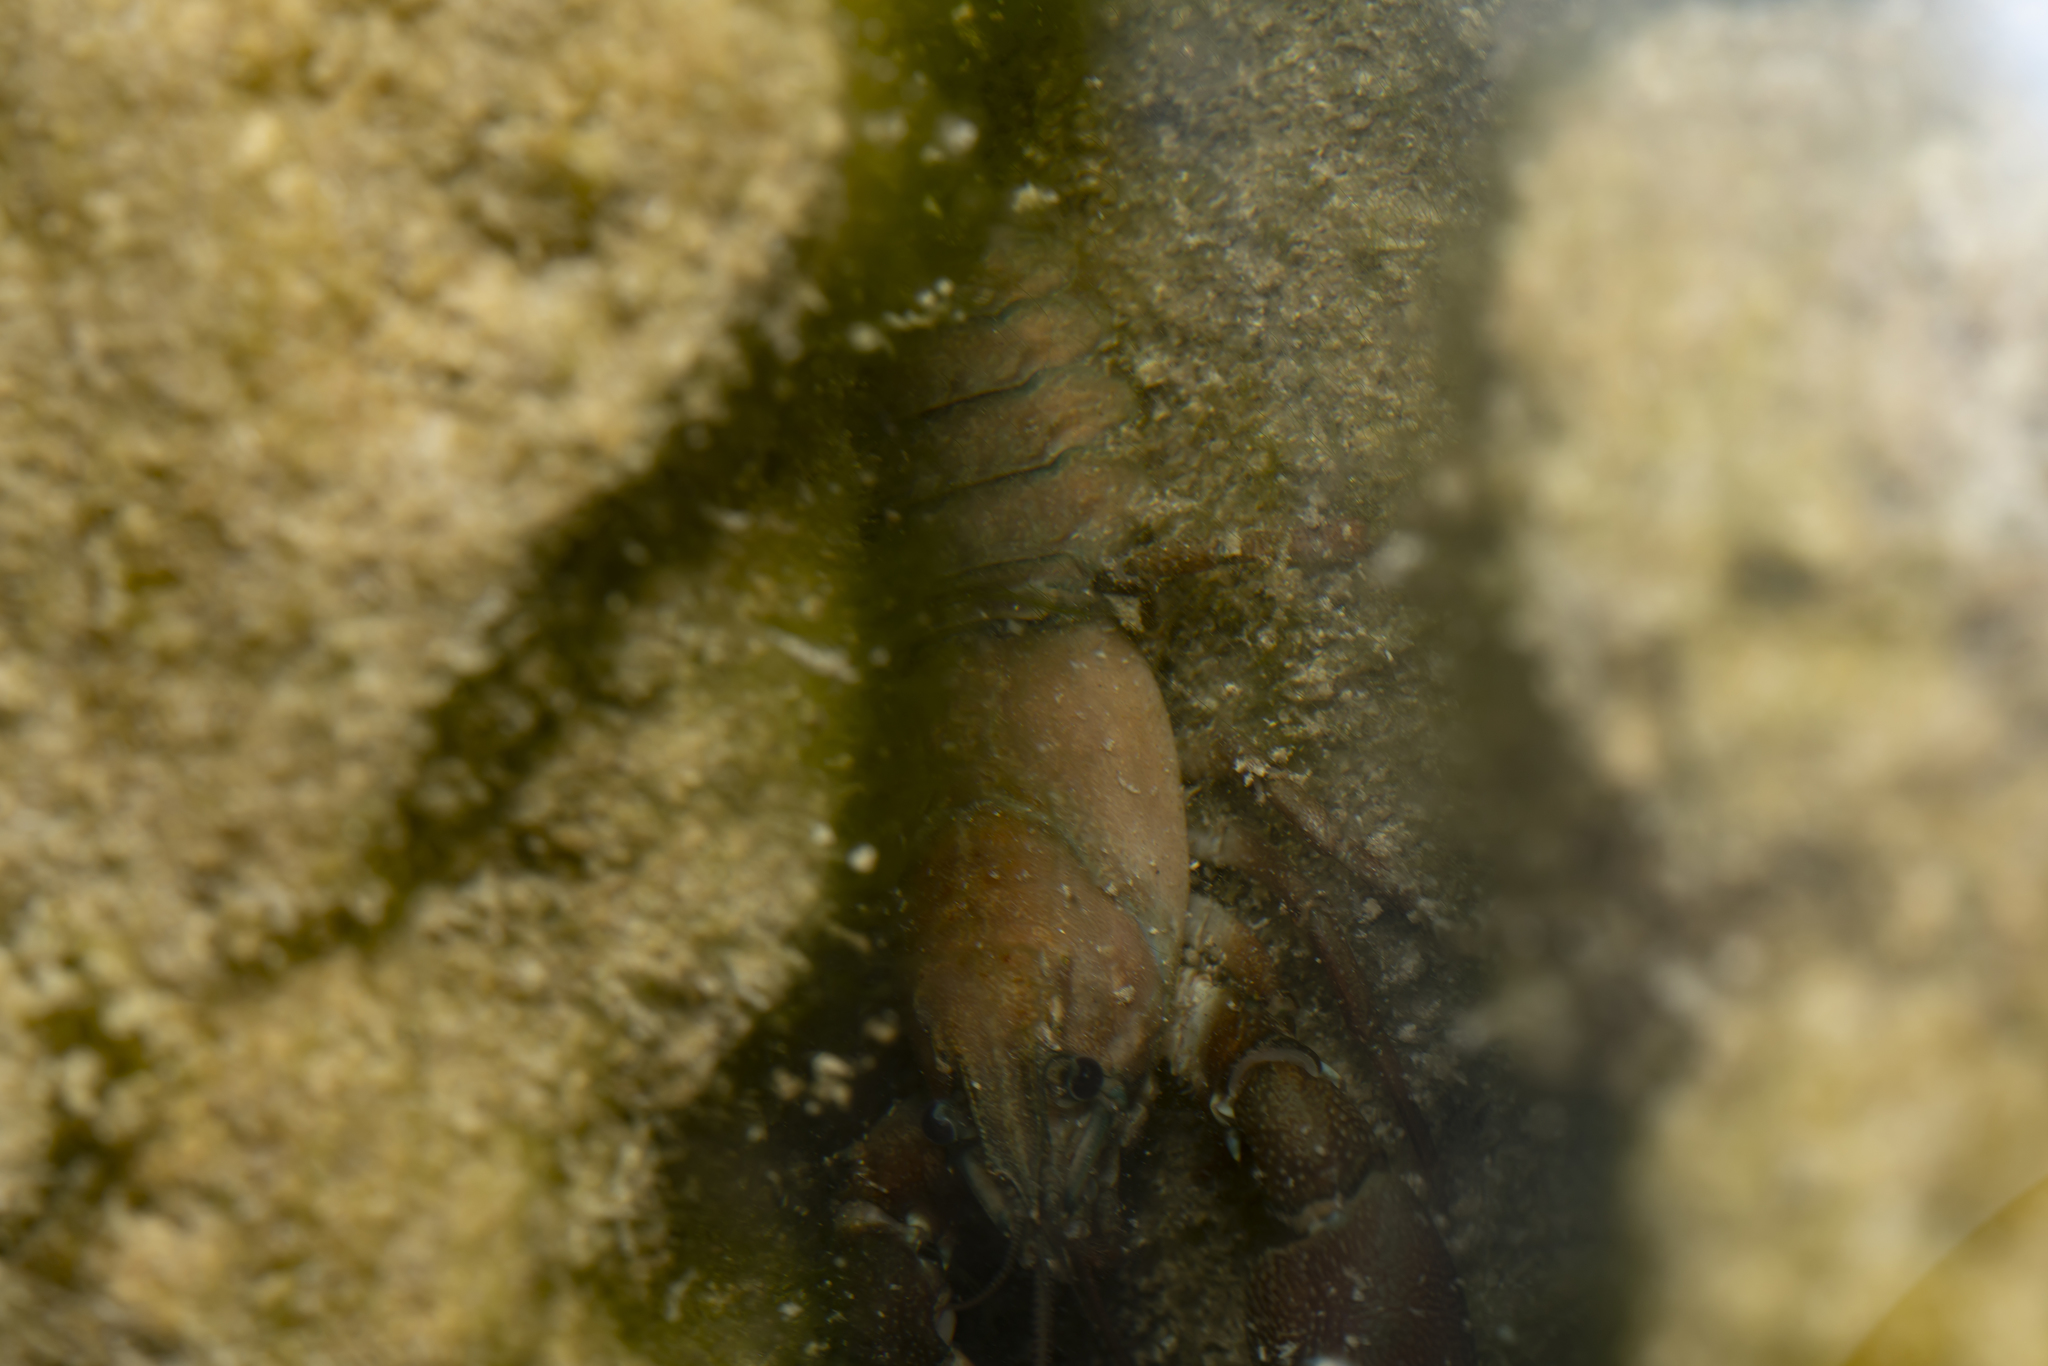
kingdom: Animalia
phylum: Arthropoda
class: Malacostraca
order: Decapoda
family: Astacidae
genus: Pacifastacus
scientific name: Pacifastacus leniusculus
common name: Signal crayfish
